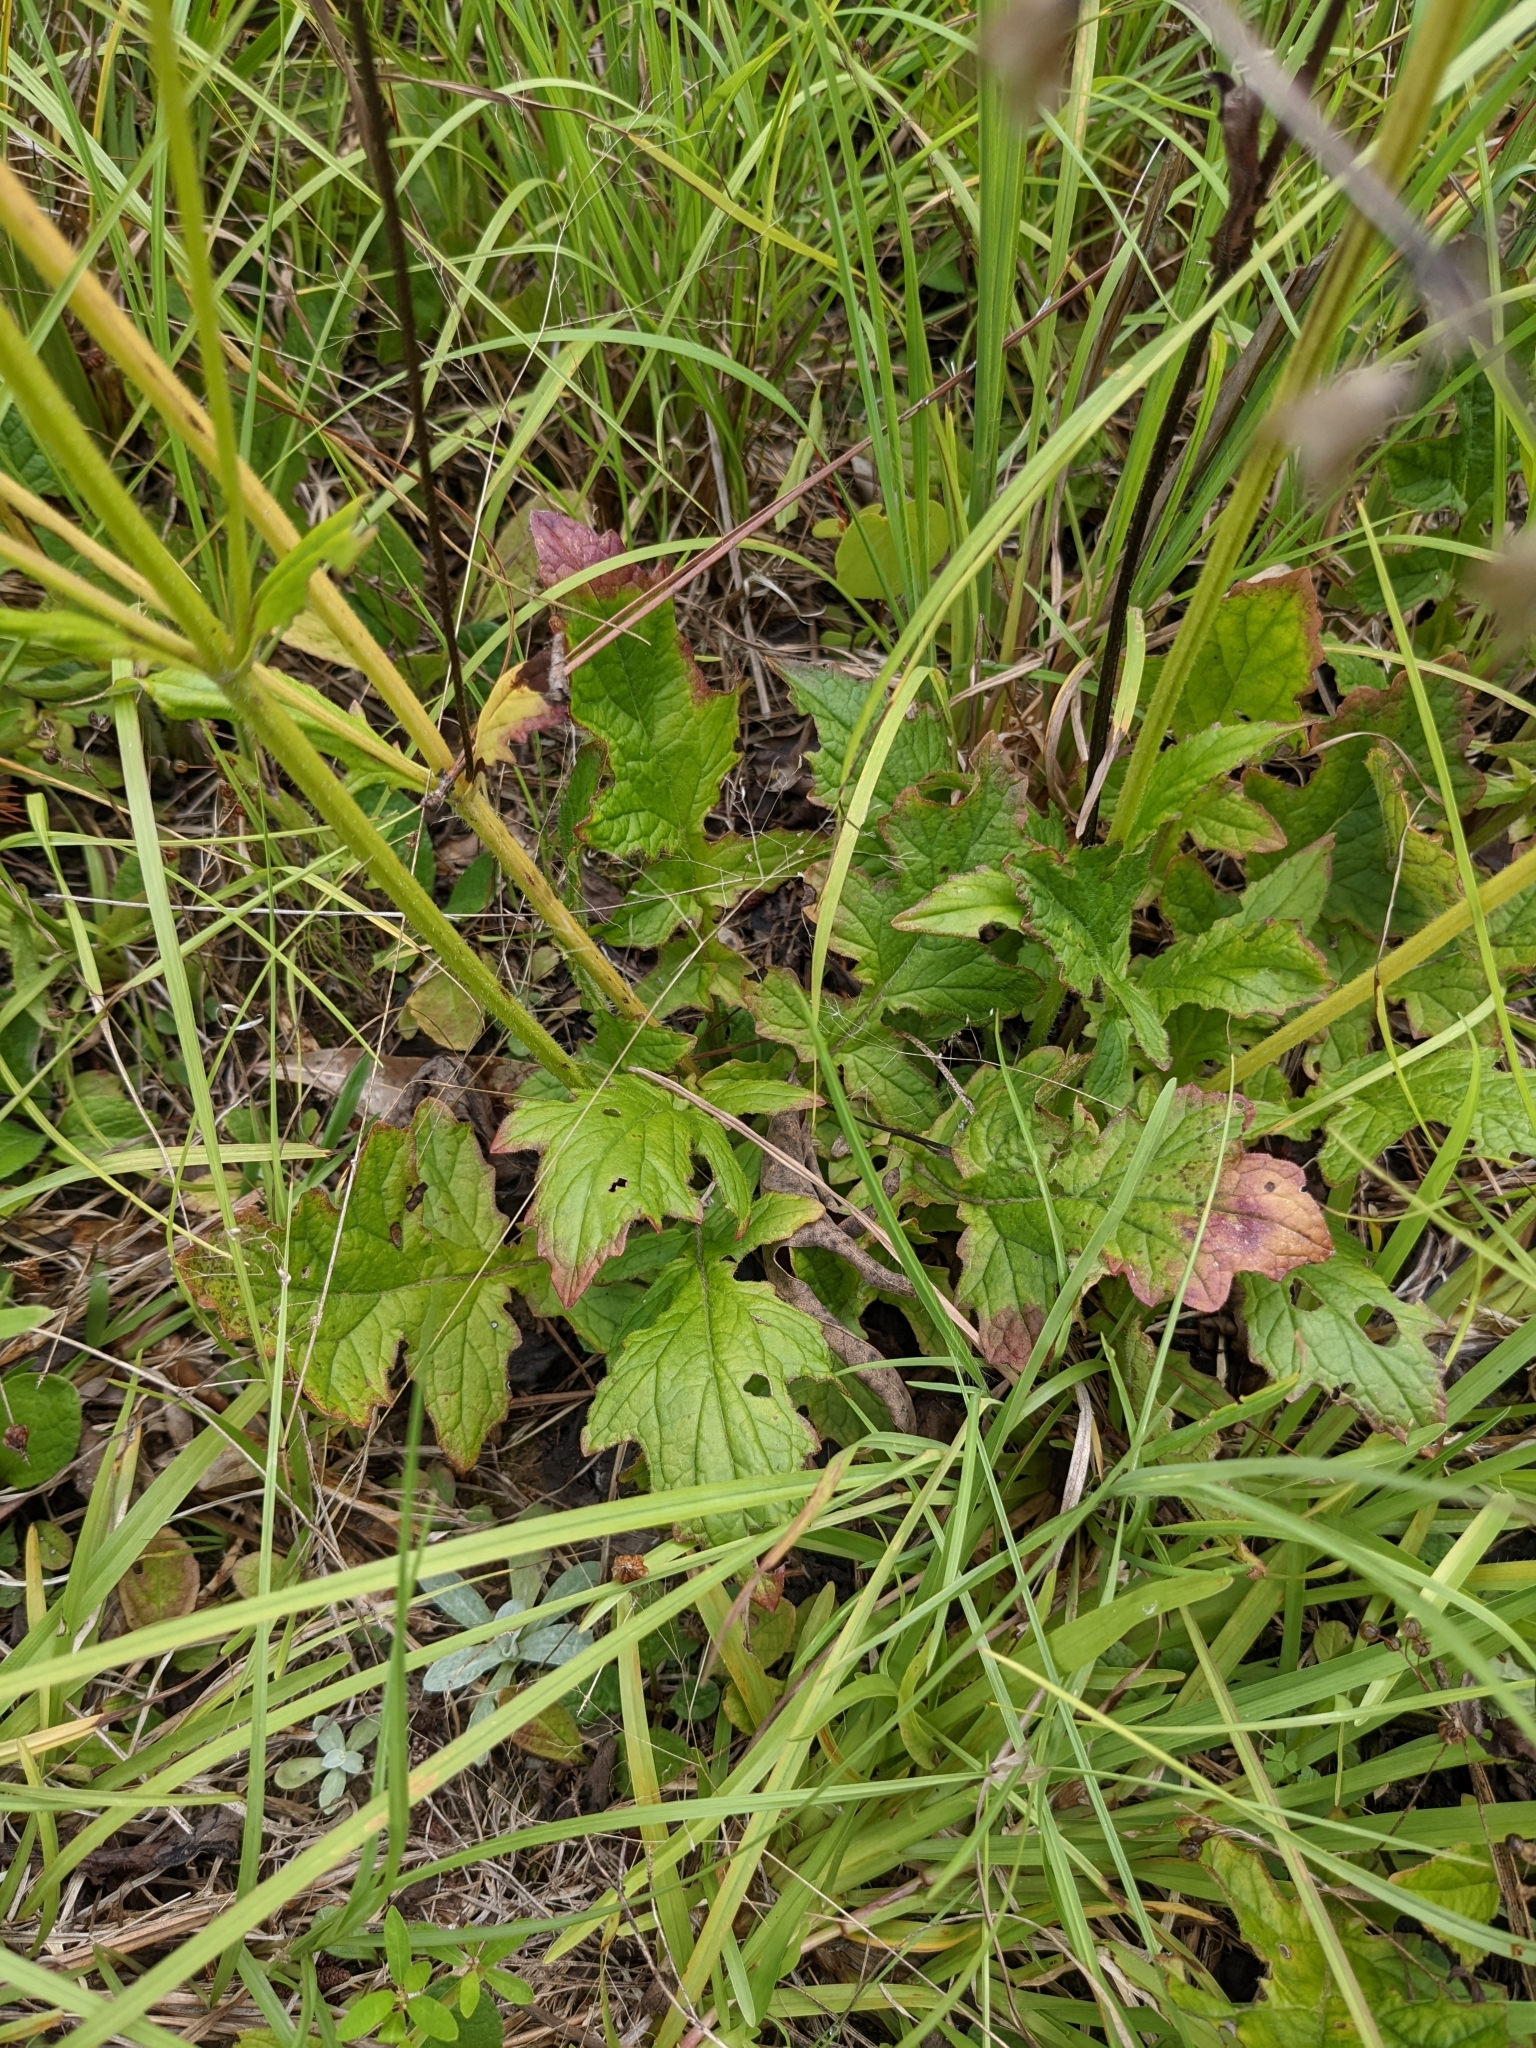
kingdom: Plantae
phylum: Tracheophyta
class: Magnoliopsida
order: Lamiales
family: Lamiaceae
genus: Salvia
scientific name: Salvia lyrata
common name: Cancerweed
